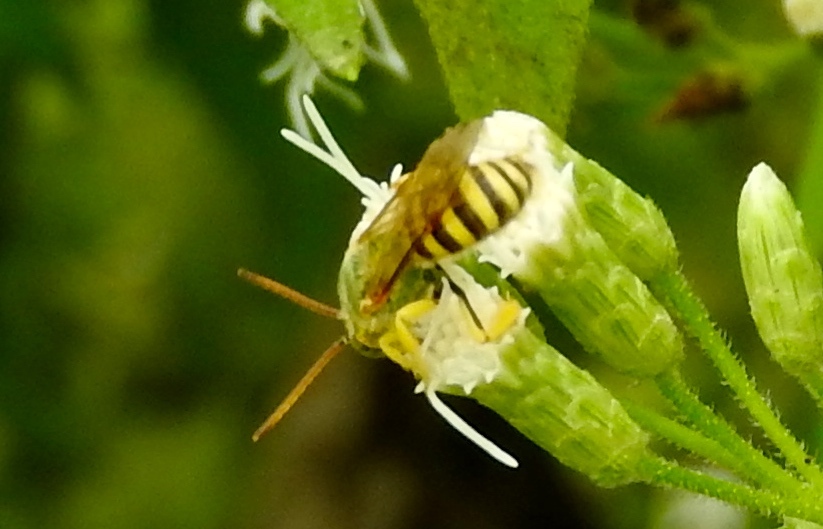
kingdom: Animalia
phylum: Arthropoda
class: Insecta
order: Hymenoptera
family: Halictidae
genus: Agapostemon
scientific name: Agapostemon
